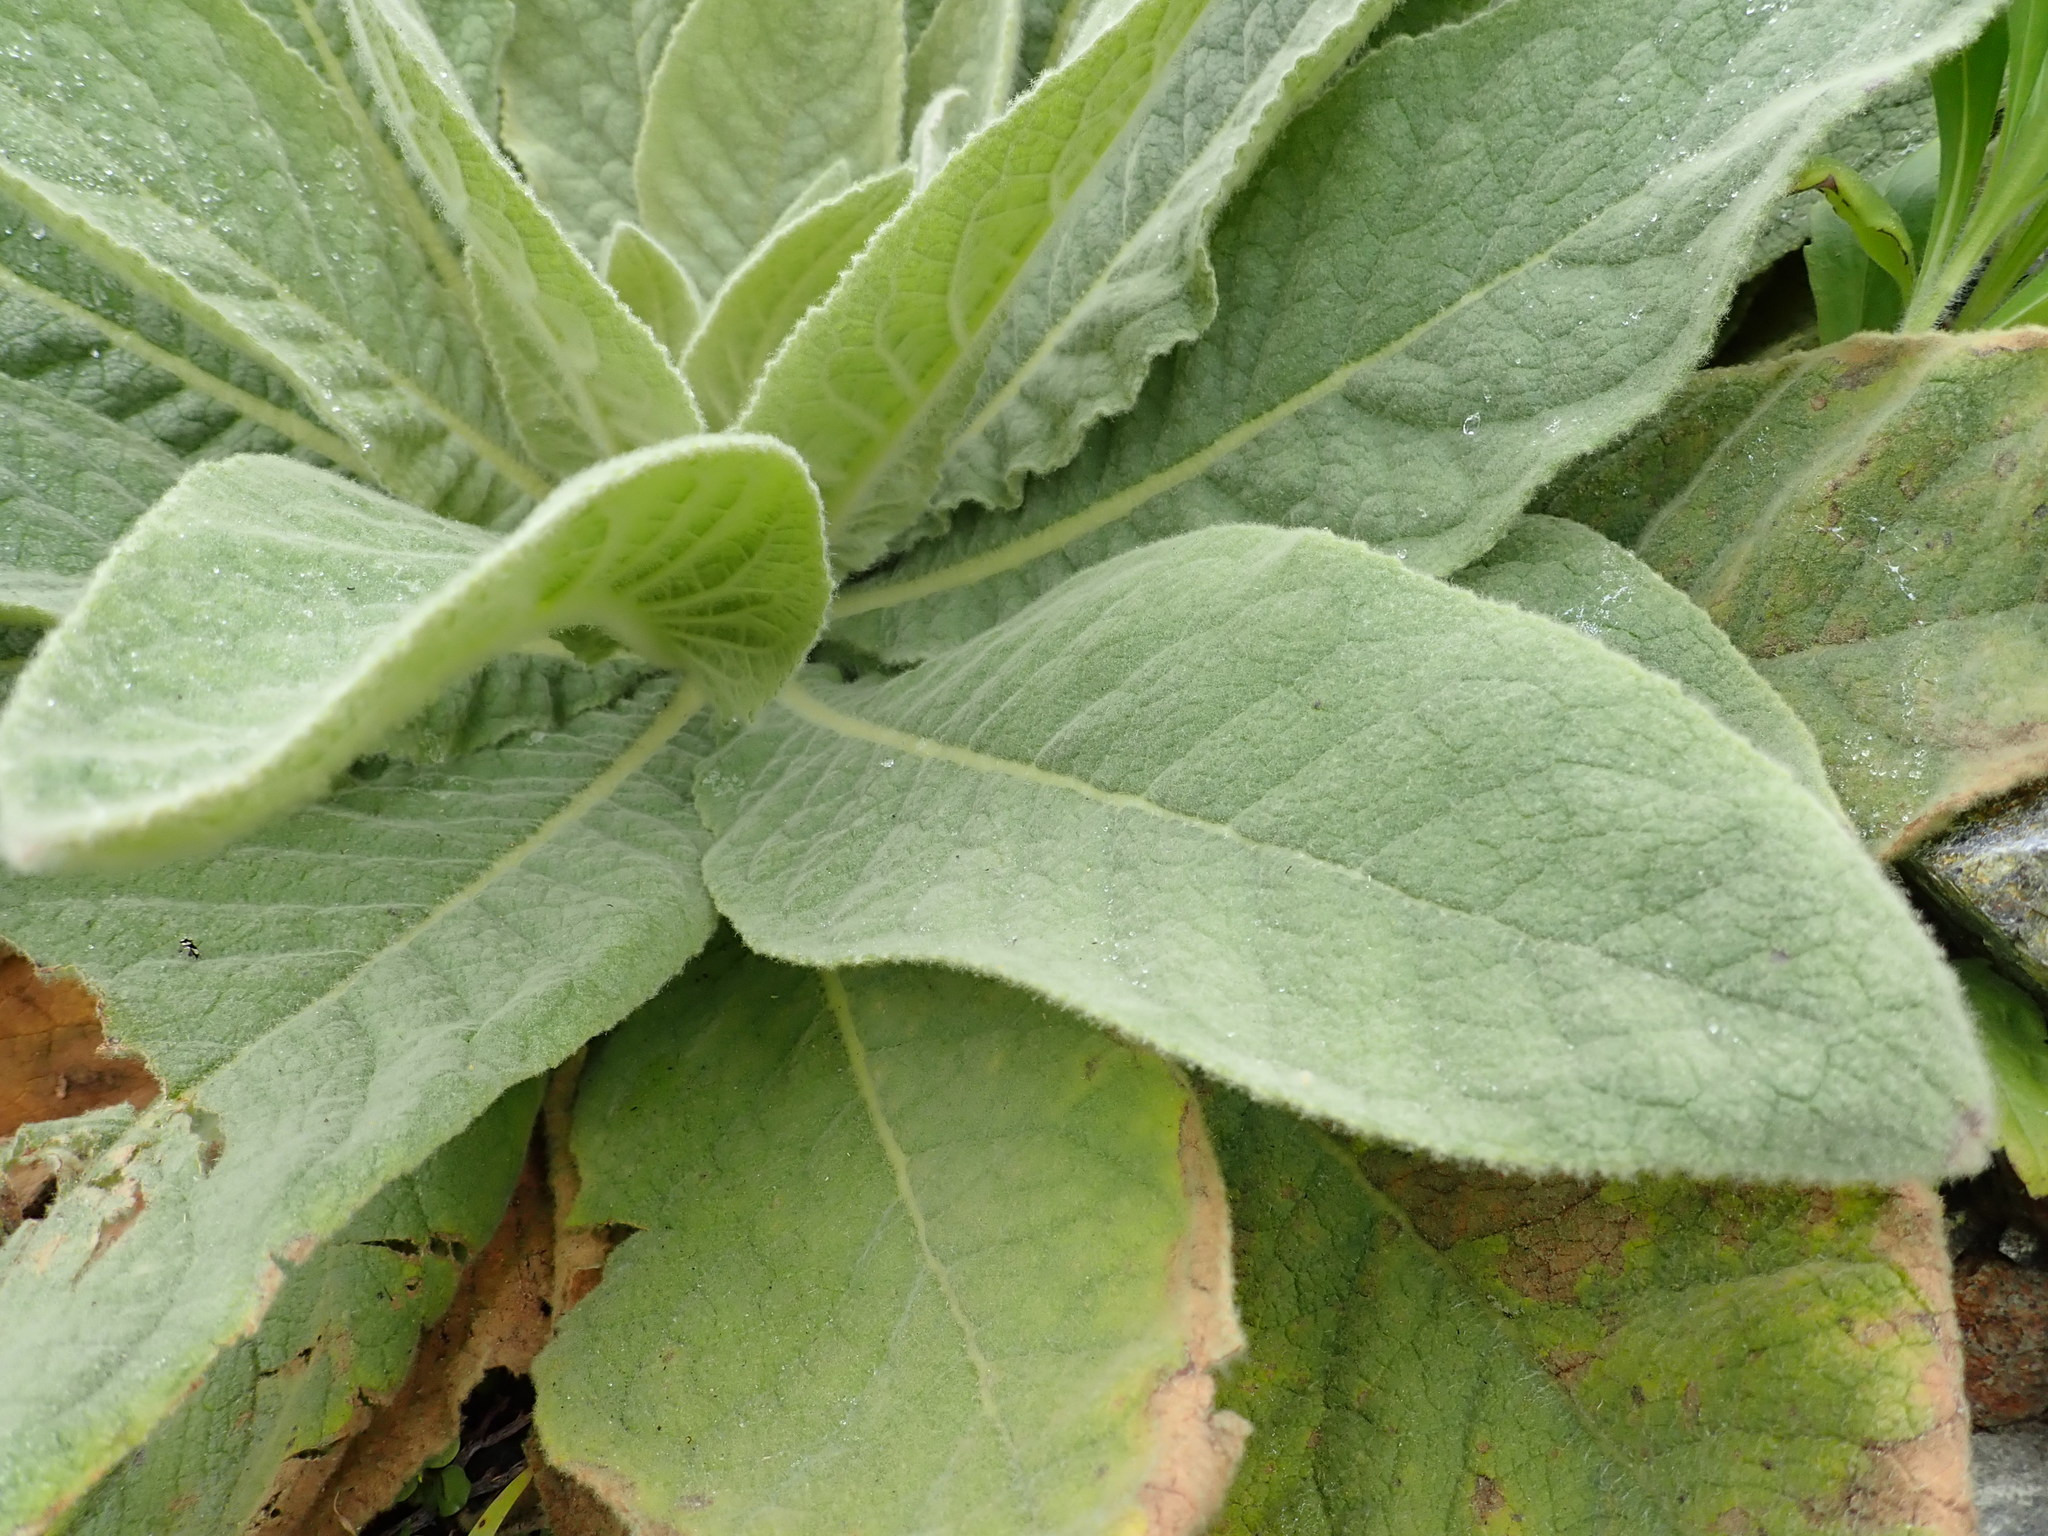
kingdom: Plantae
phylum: Tracheophyta
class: Magnoliopsida
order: Lamiales
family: Scrophulariaceae
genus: Verbascum
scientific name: Verbascum thapsus
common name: Common mullein
